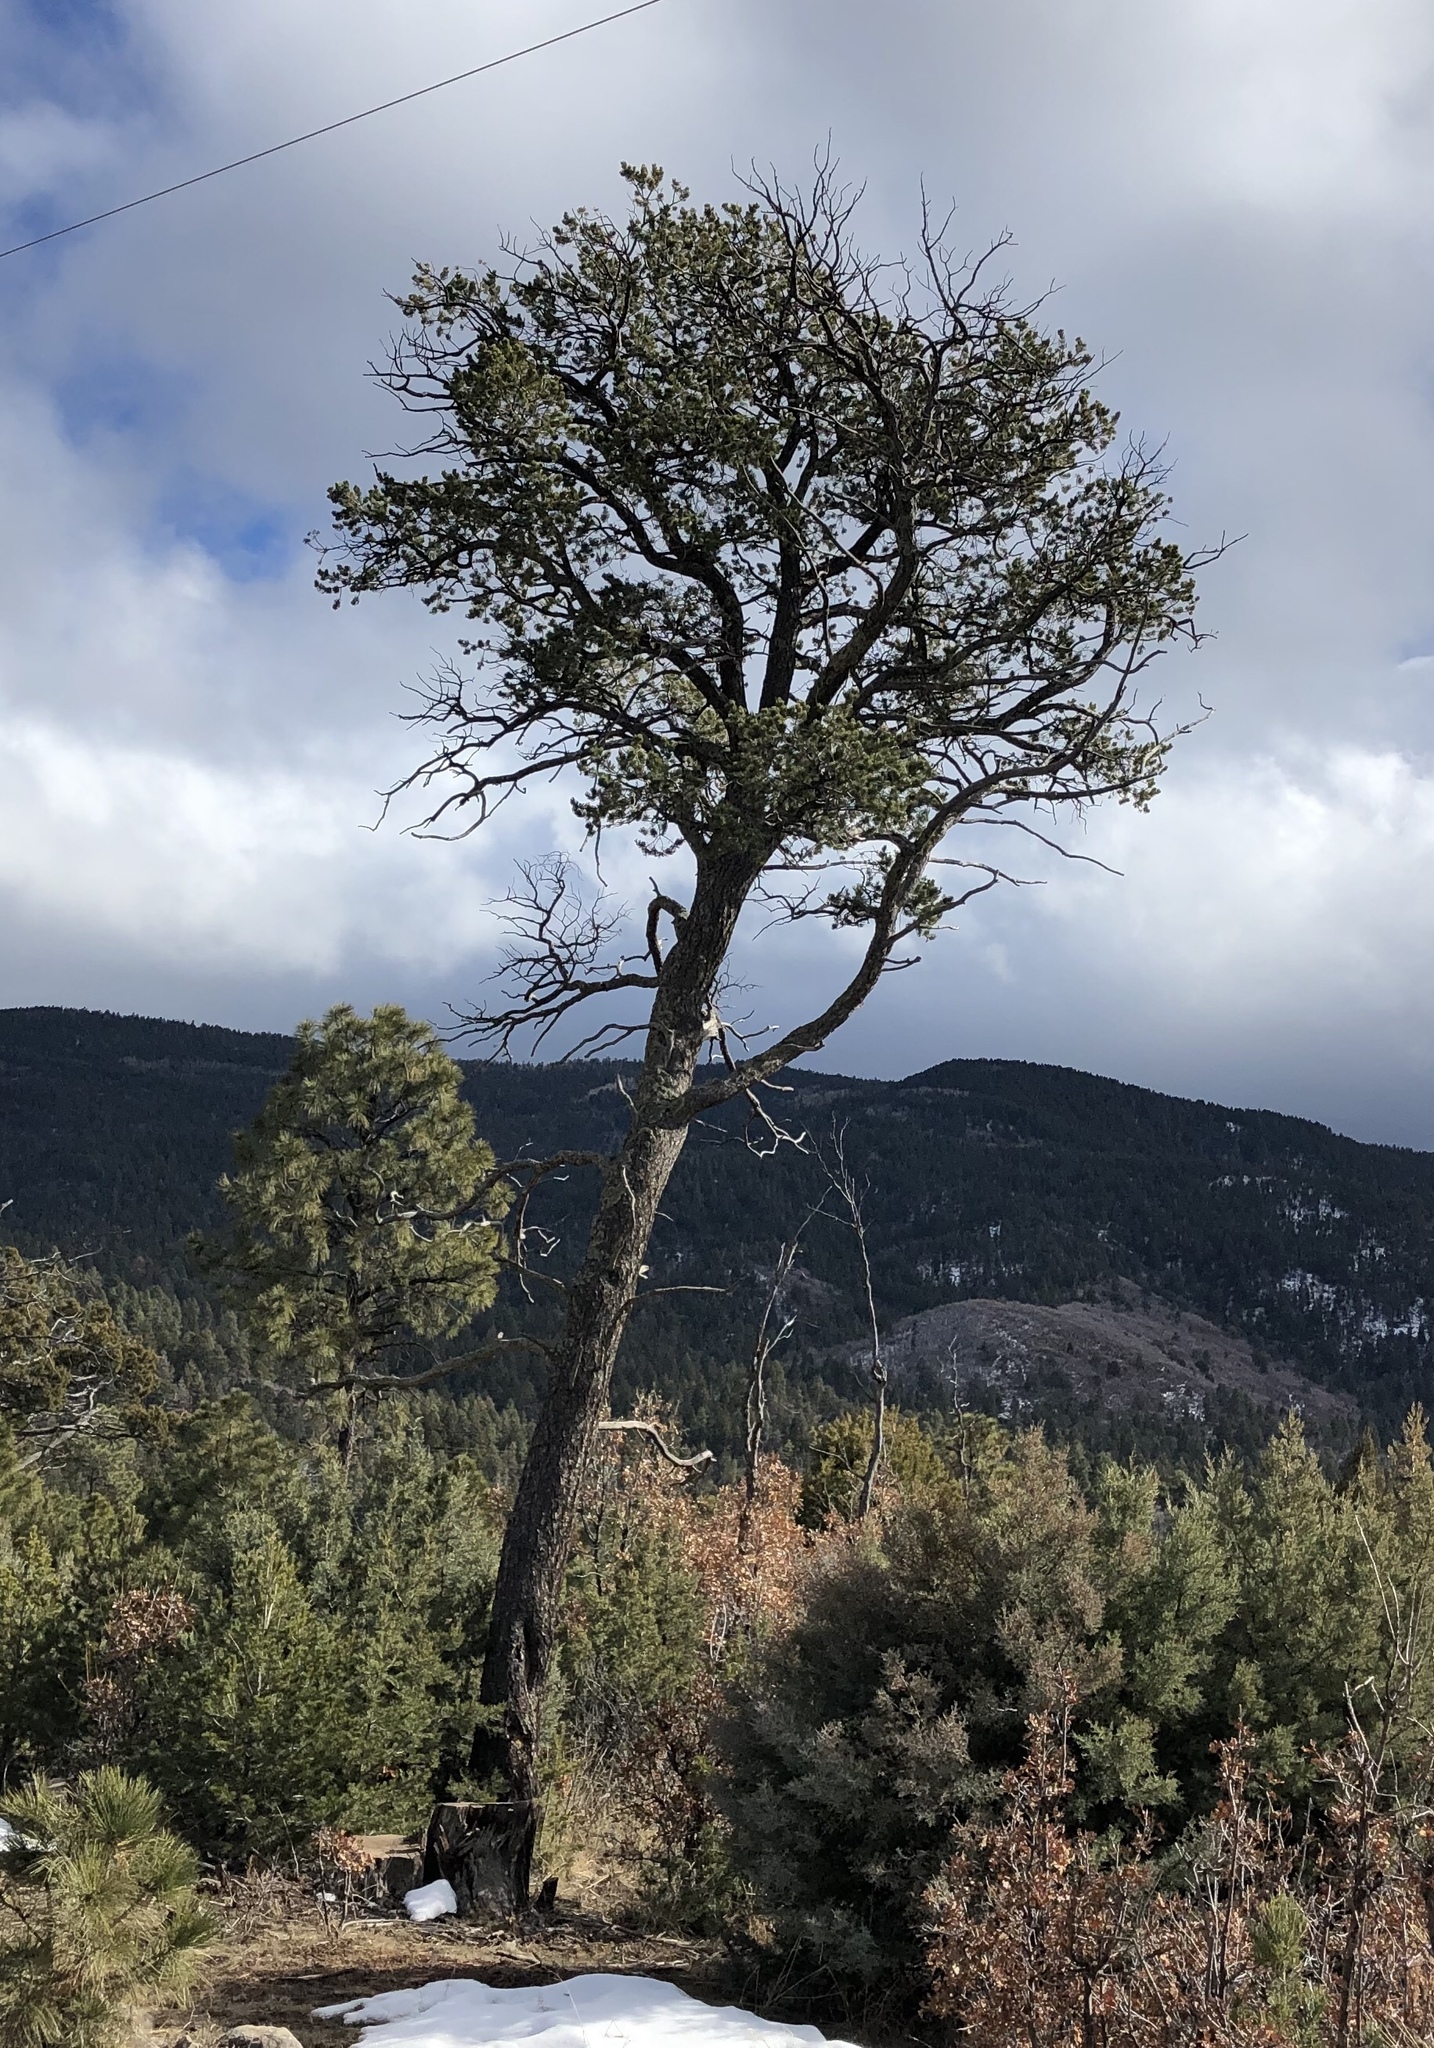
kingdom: Plantae
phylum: Tracheophyta
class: Pinopsida
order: Pinales
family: Pinaceae
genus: Pinus
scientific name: Pinus edulis
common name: Colorado pinyon
